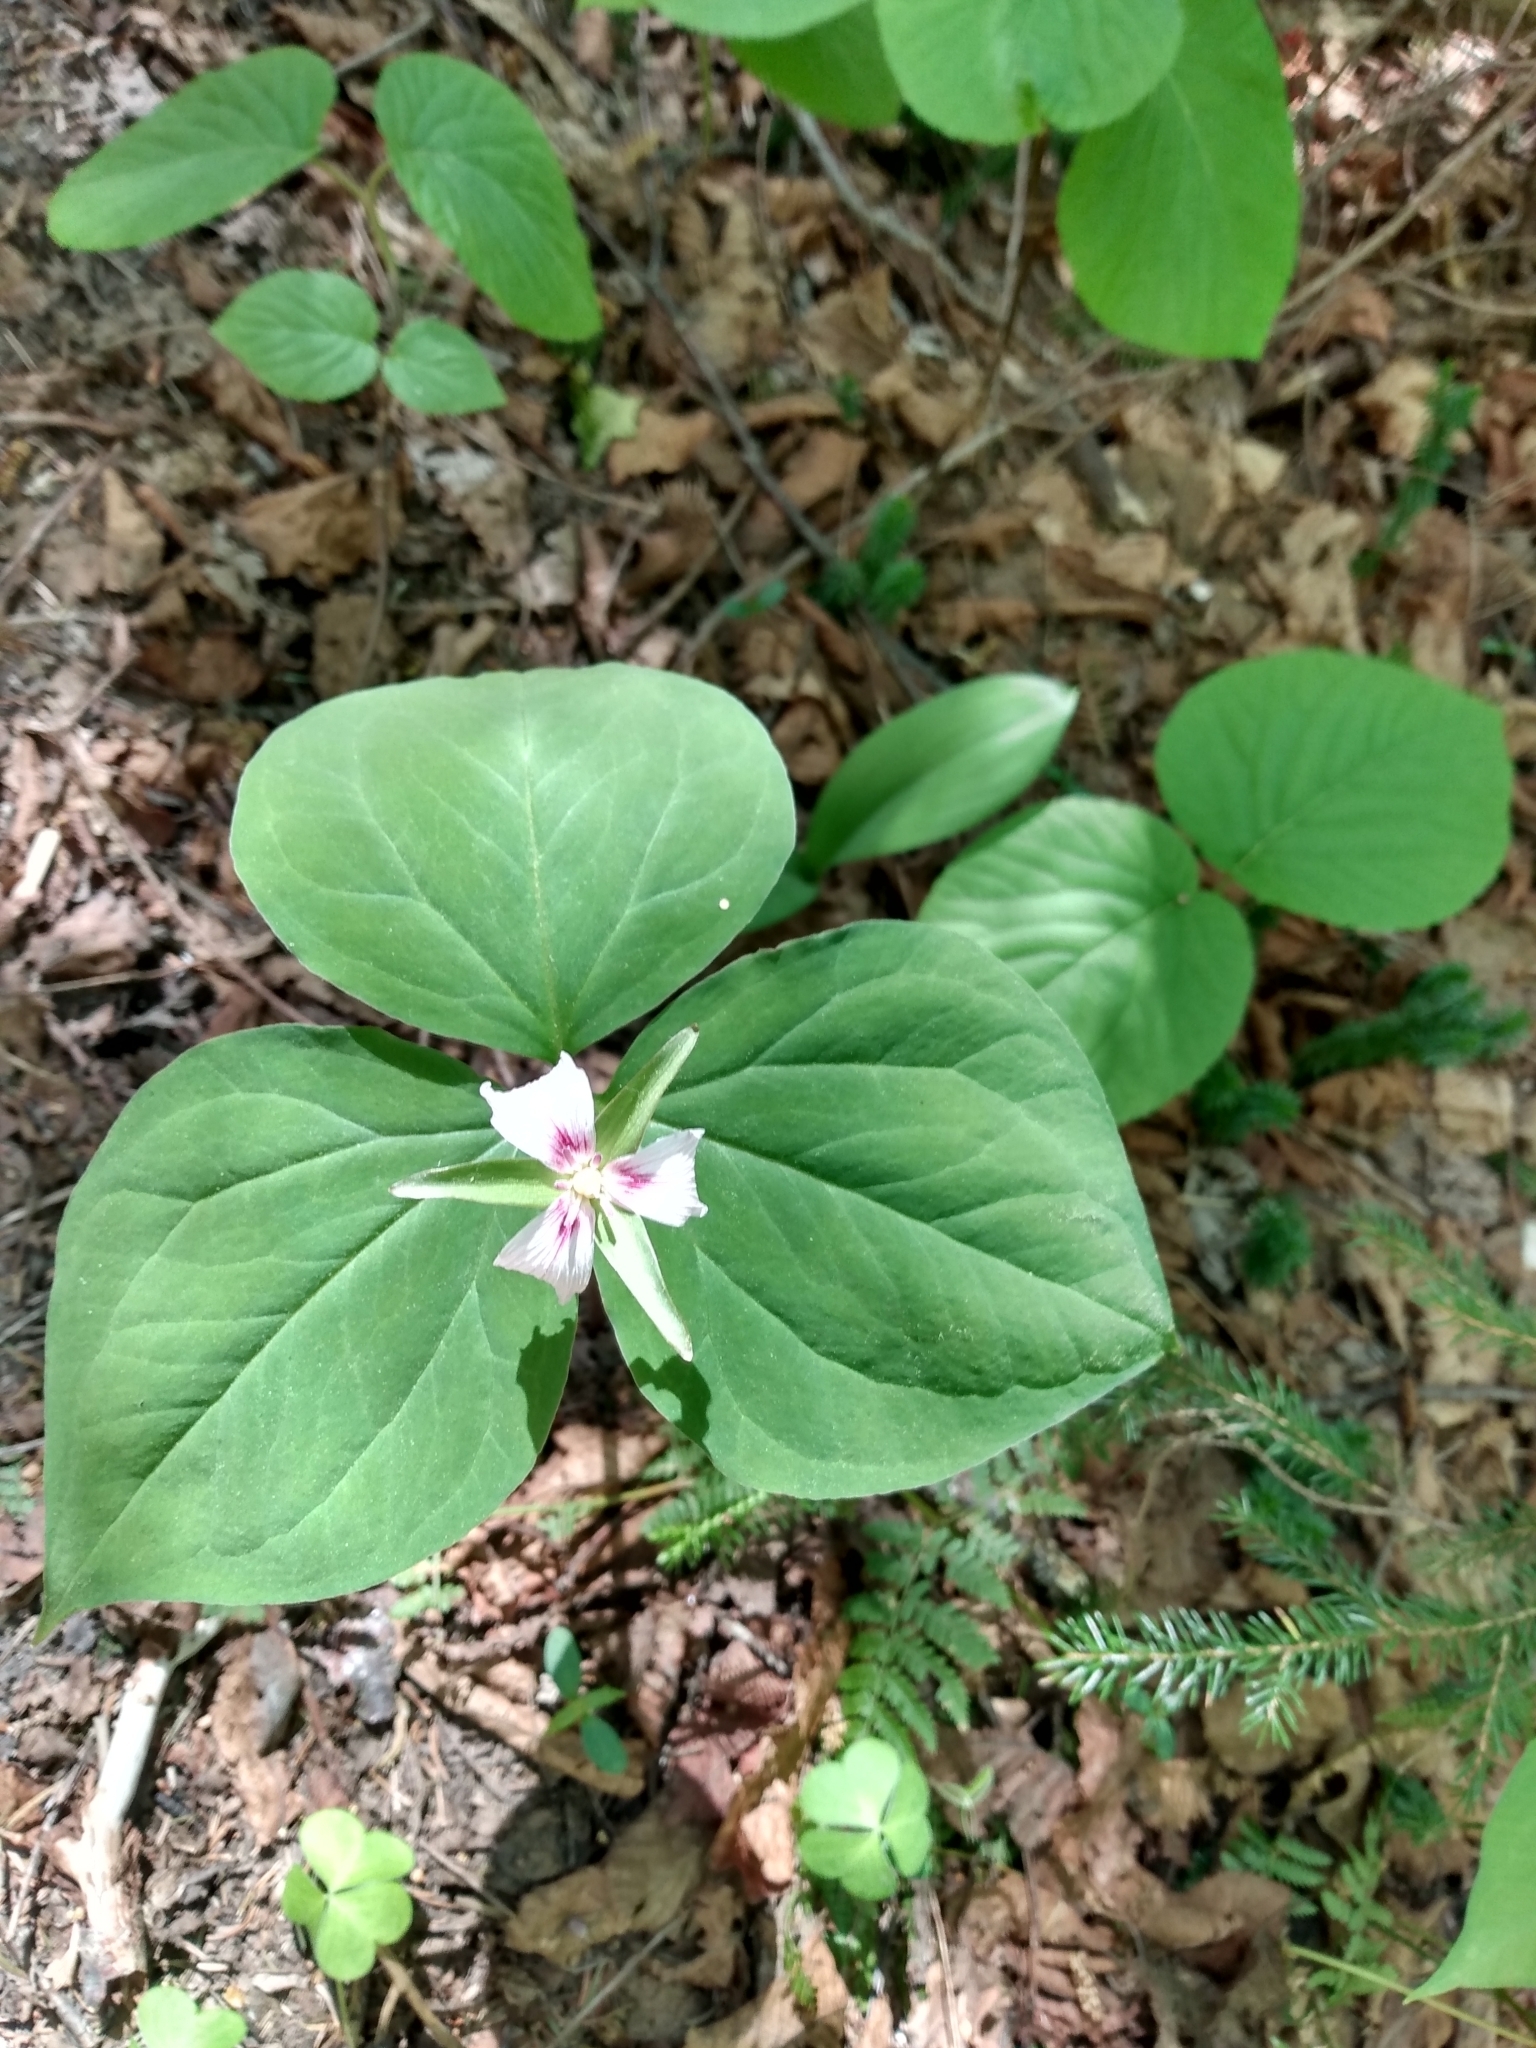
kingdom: Plantae
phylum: Tracheophyta
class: Liliopsida
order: Liliales
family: Melanthiaceae
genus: Trillium
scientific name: Trillium undulatum
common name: Paint trillium
